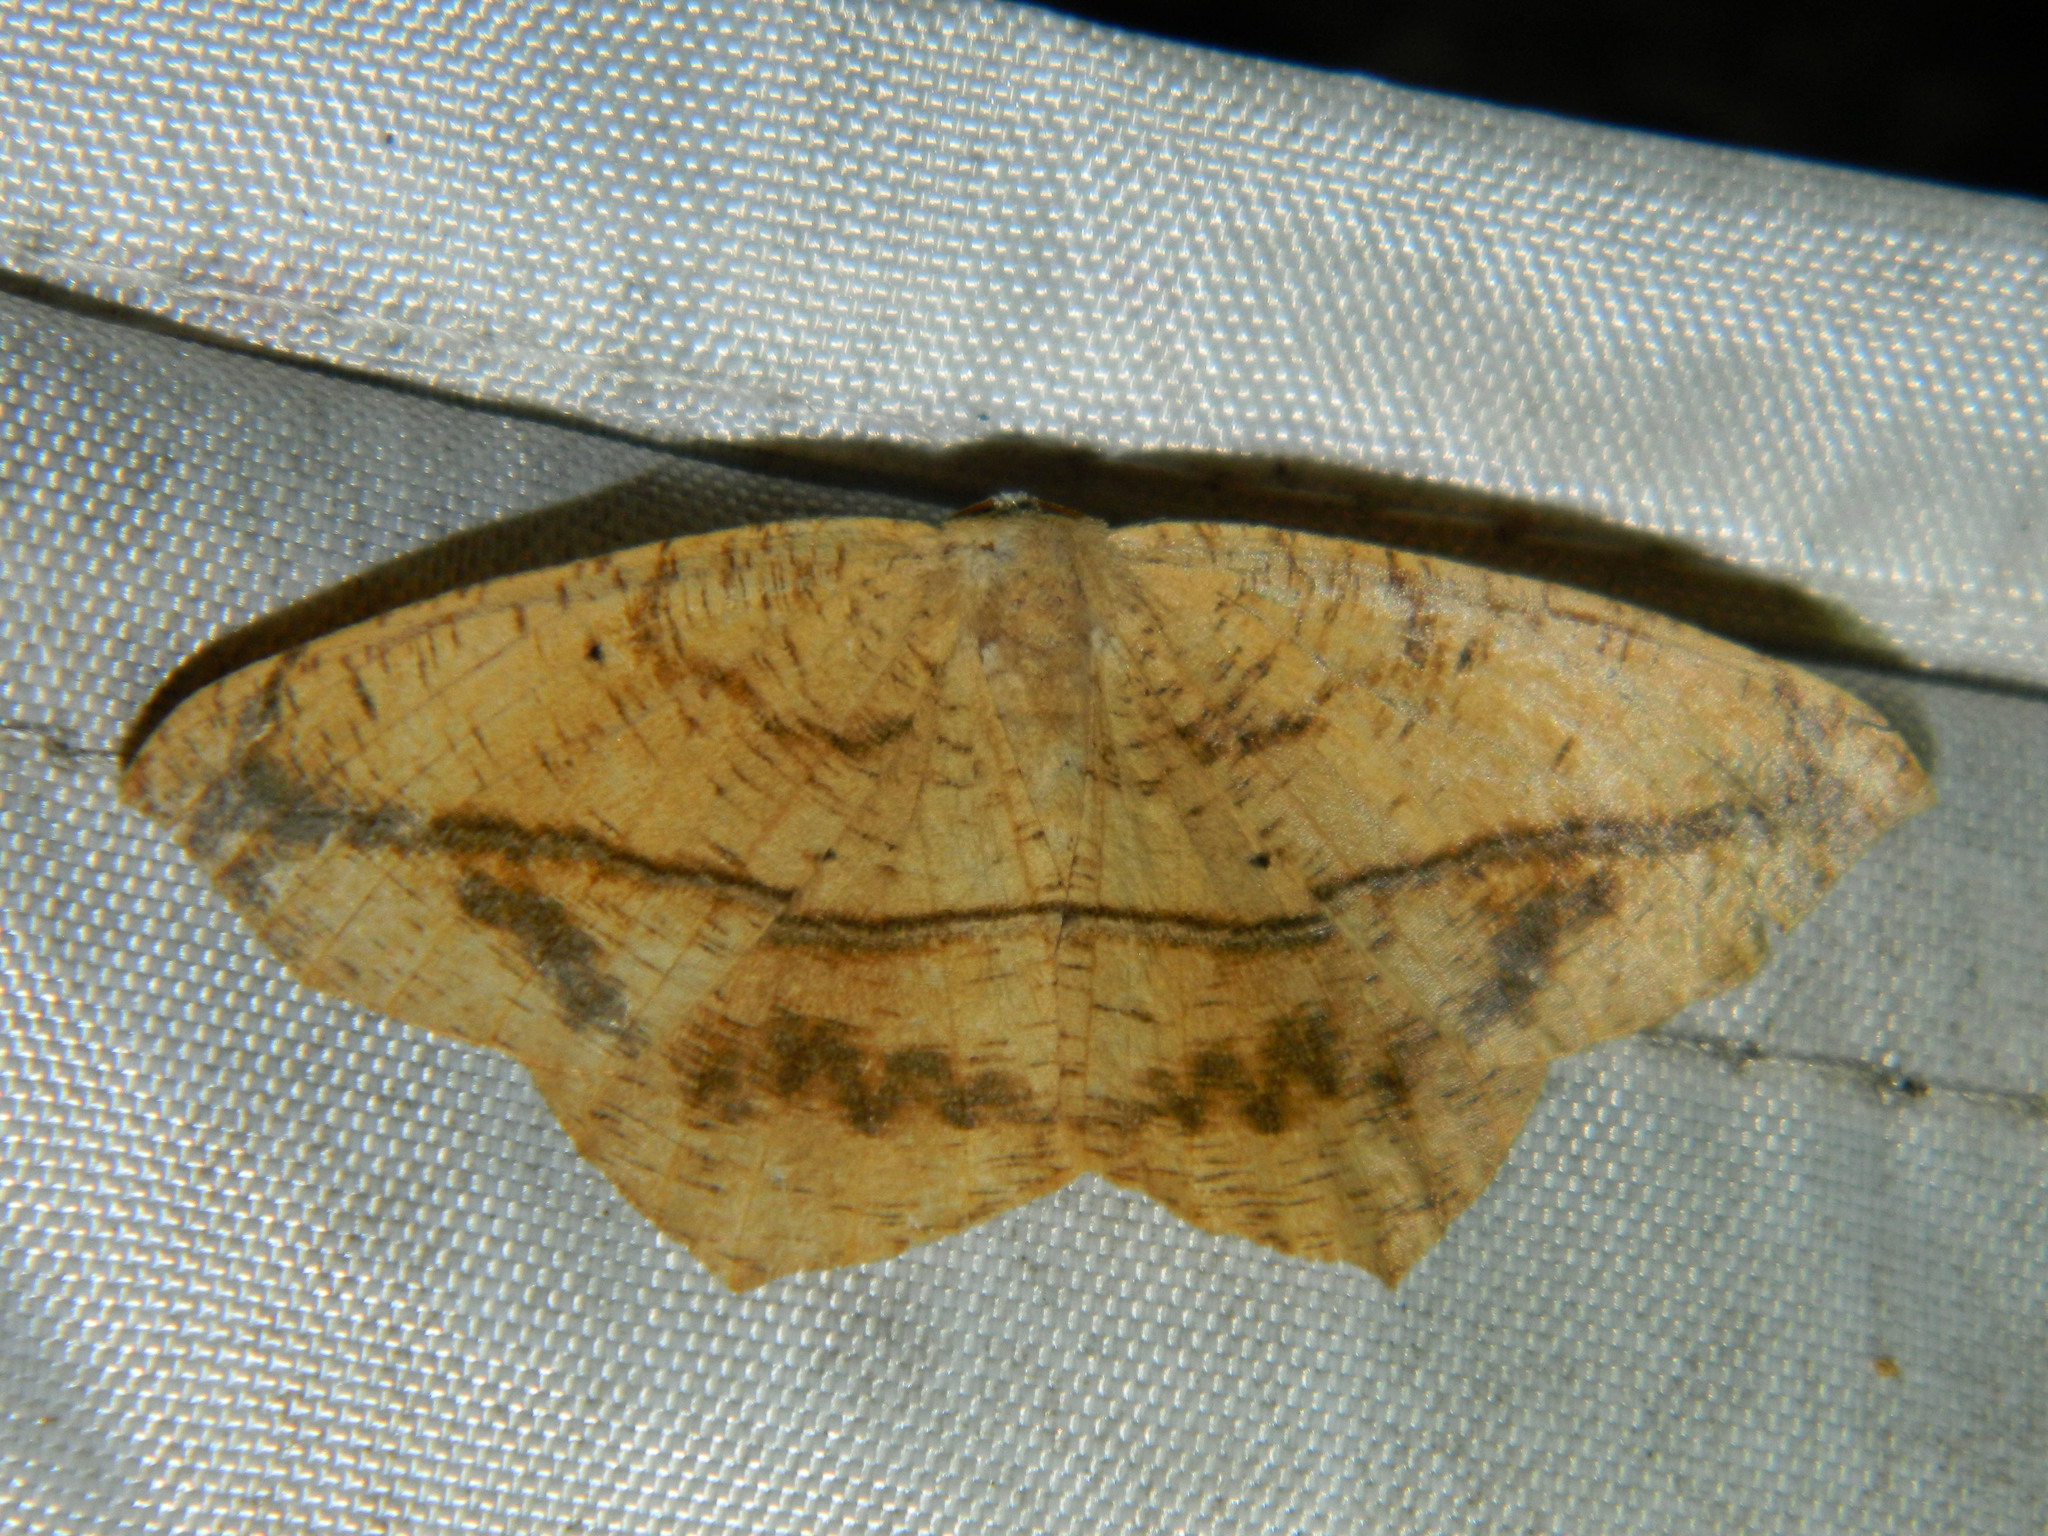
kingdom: Animalia
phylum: Arthropoda
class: Insecta
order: Lepidoptera
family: Geometridae
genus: Prochoerodes
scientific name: Prochoerodes lineola
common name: Large maple spanworm
